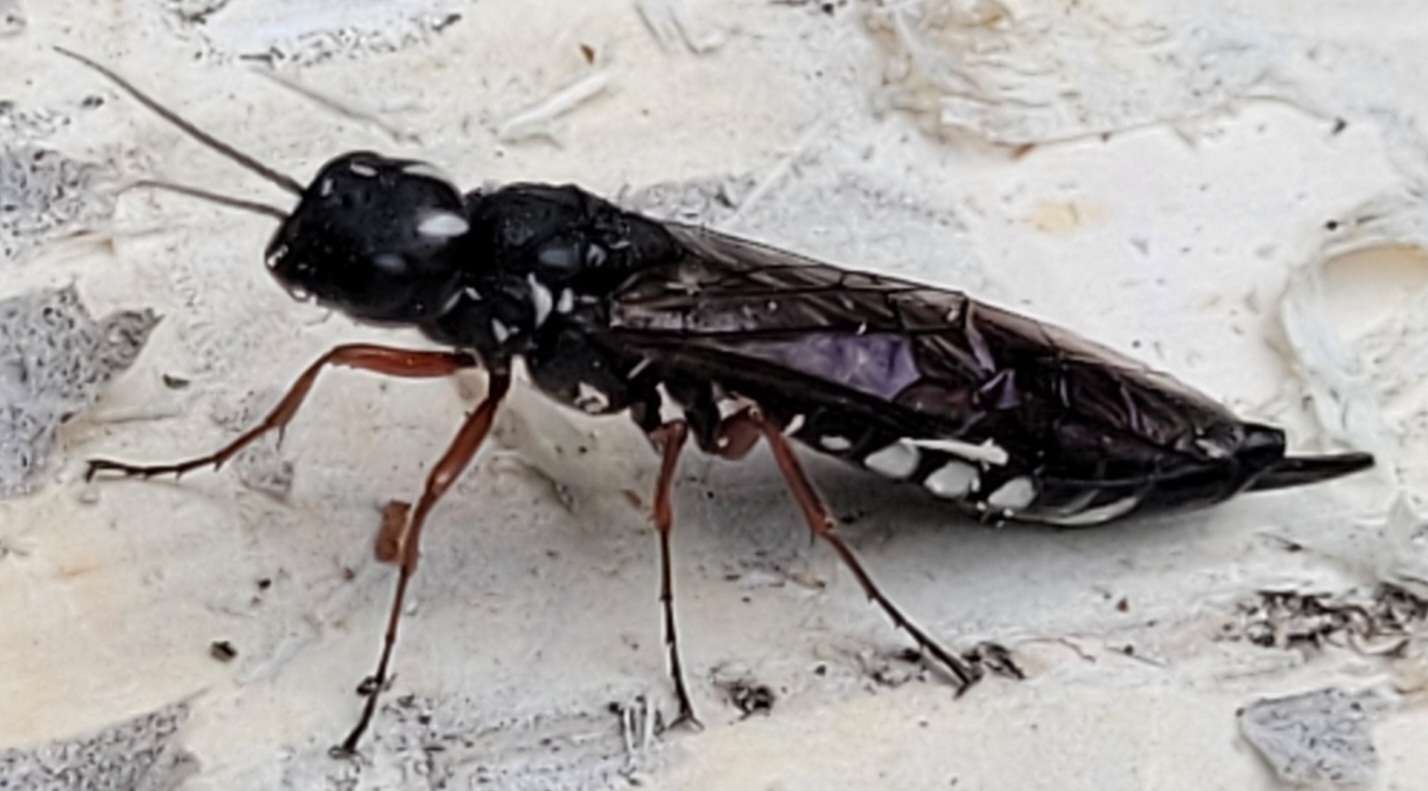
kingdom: Animalia
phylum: Arthropoda
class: Insecta
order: Hymenoptera
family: Xiphydriidae
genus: Xiphydria
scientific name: Xiphydria camelus
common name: Alder wood-wasp
